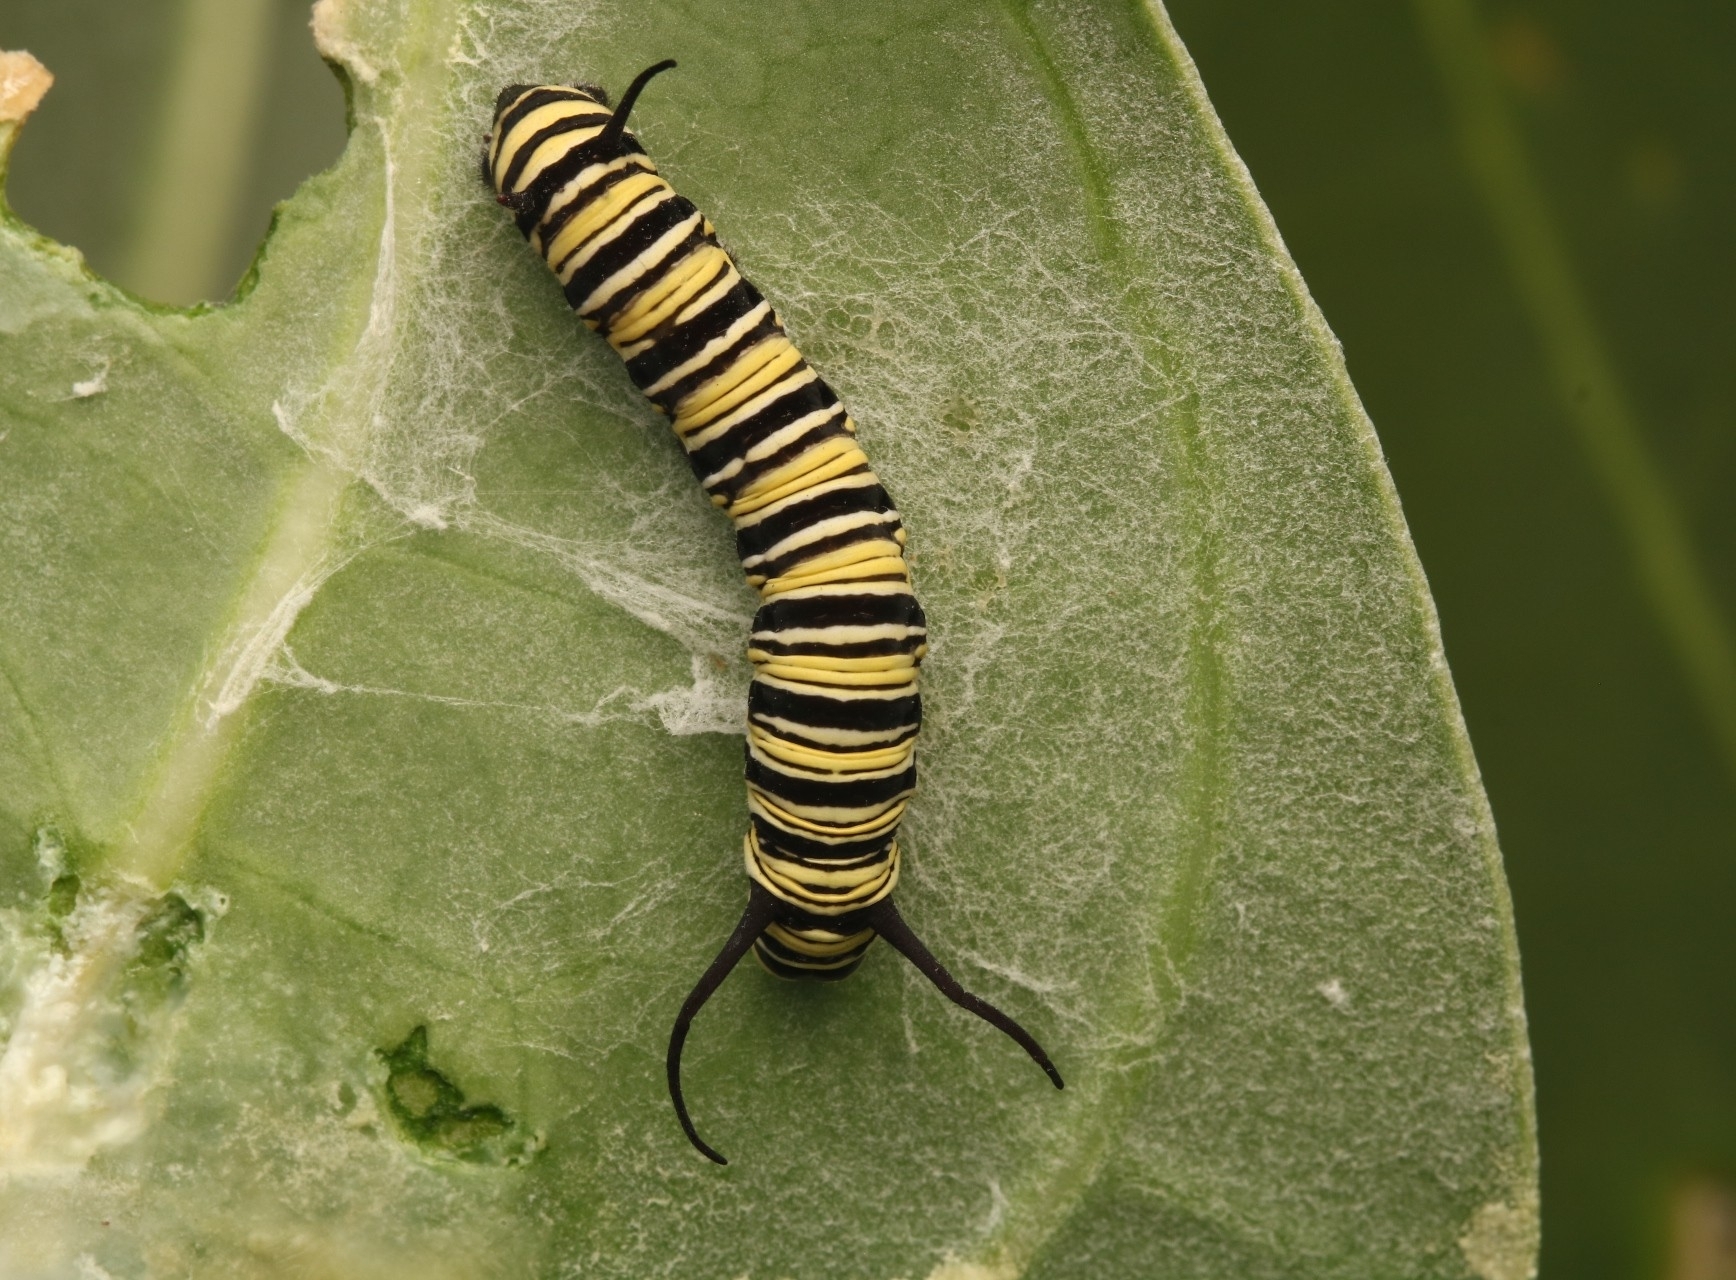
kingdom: Animalia
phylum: Arthropoda
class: Insecta
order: Lepidoptera
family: Nymphalidae
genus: Danaus
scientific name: Danaus plexippus
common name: Monarch
